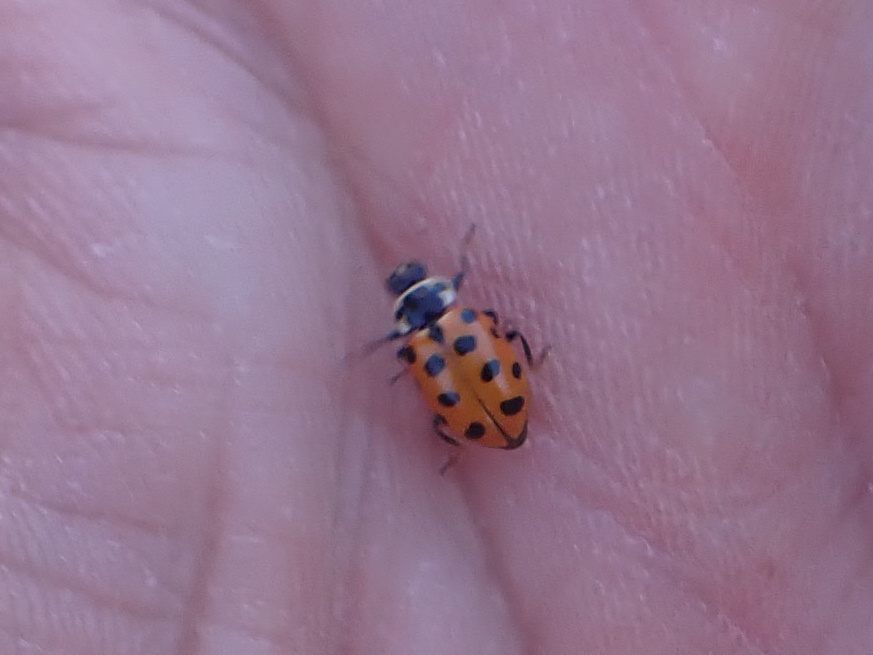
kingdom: Animalia
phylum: Arthropoda
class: Insecta
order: Coleoptera
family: Coccinellidae
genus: Hippodamia
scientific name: Hippodamia tredecimpunctata
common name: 13-spot ladybird
